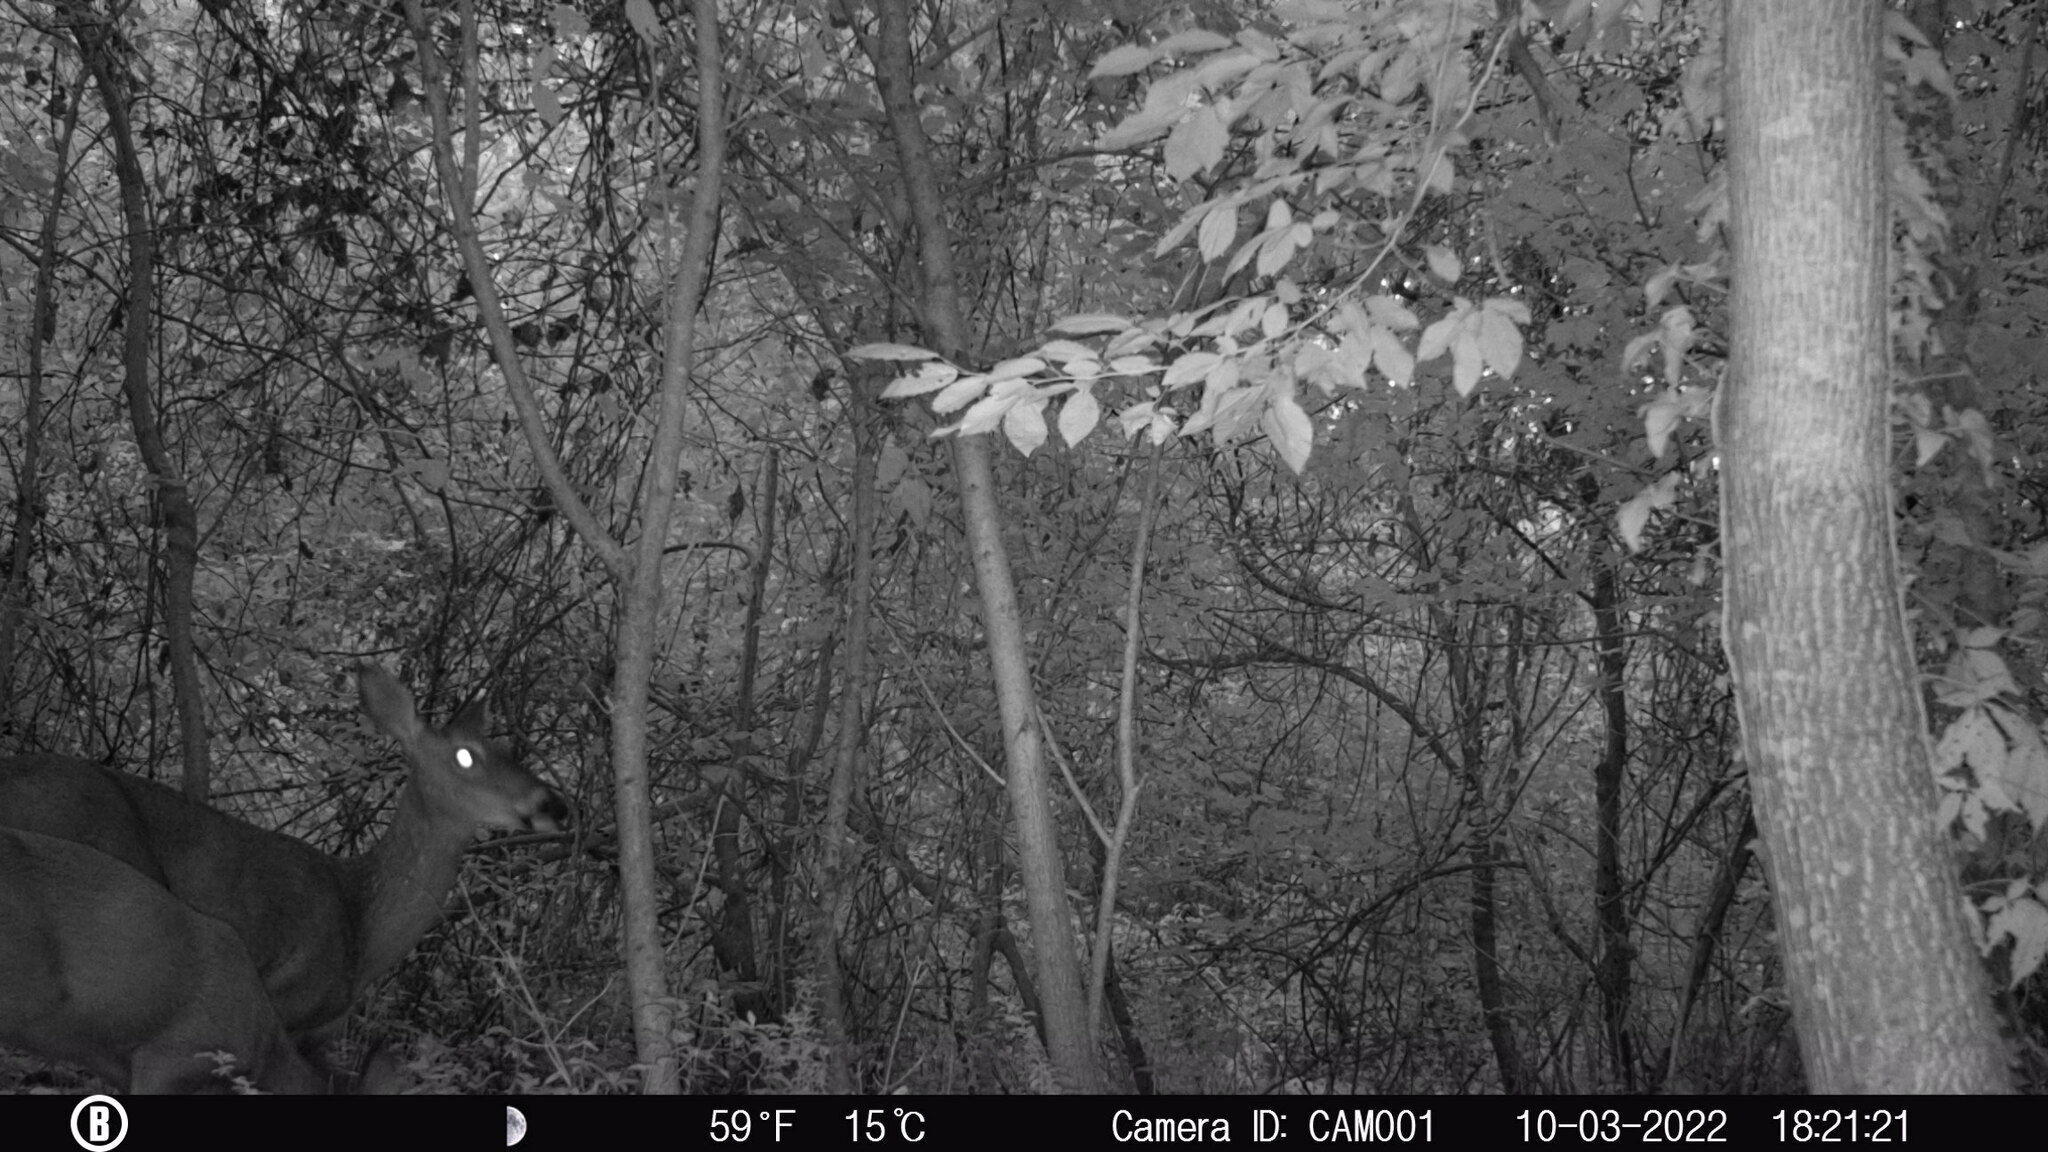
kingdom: Animalia
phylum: Chordata
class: Mammalia
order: Artiodactyla
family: Cervidae
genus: Odocoileus
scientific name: Odocoileus virginianus
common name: White-tailed deer
